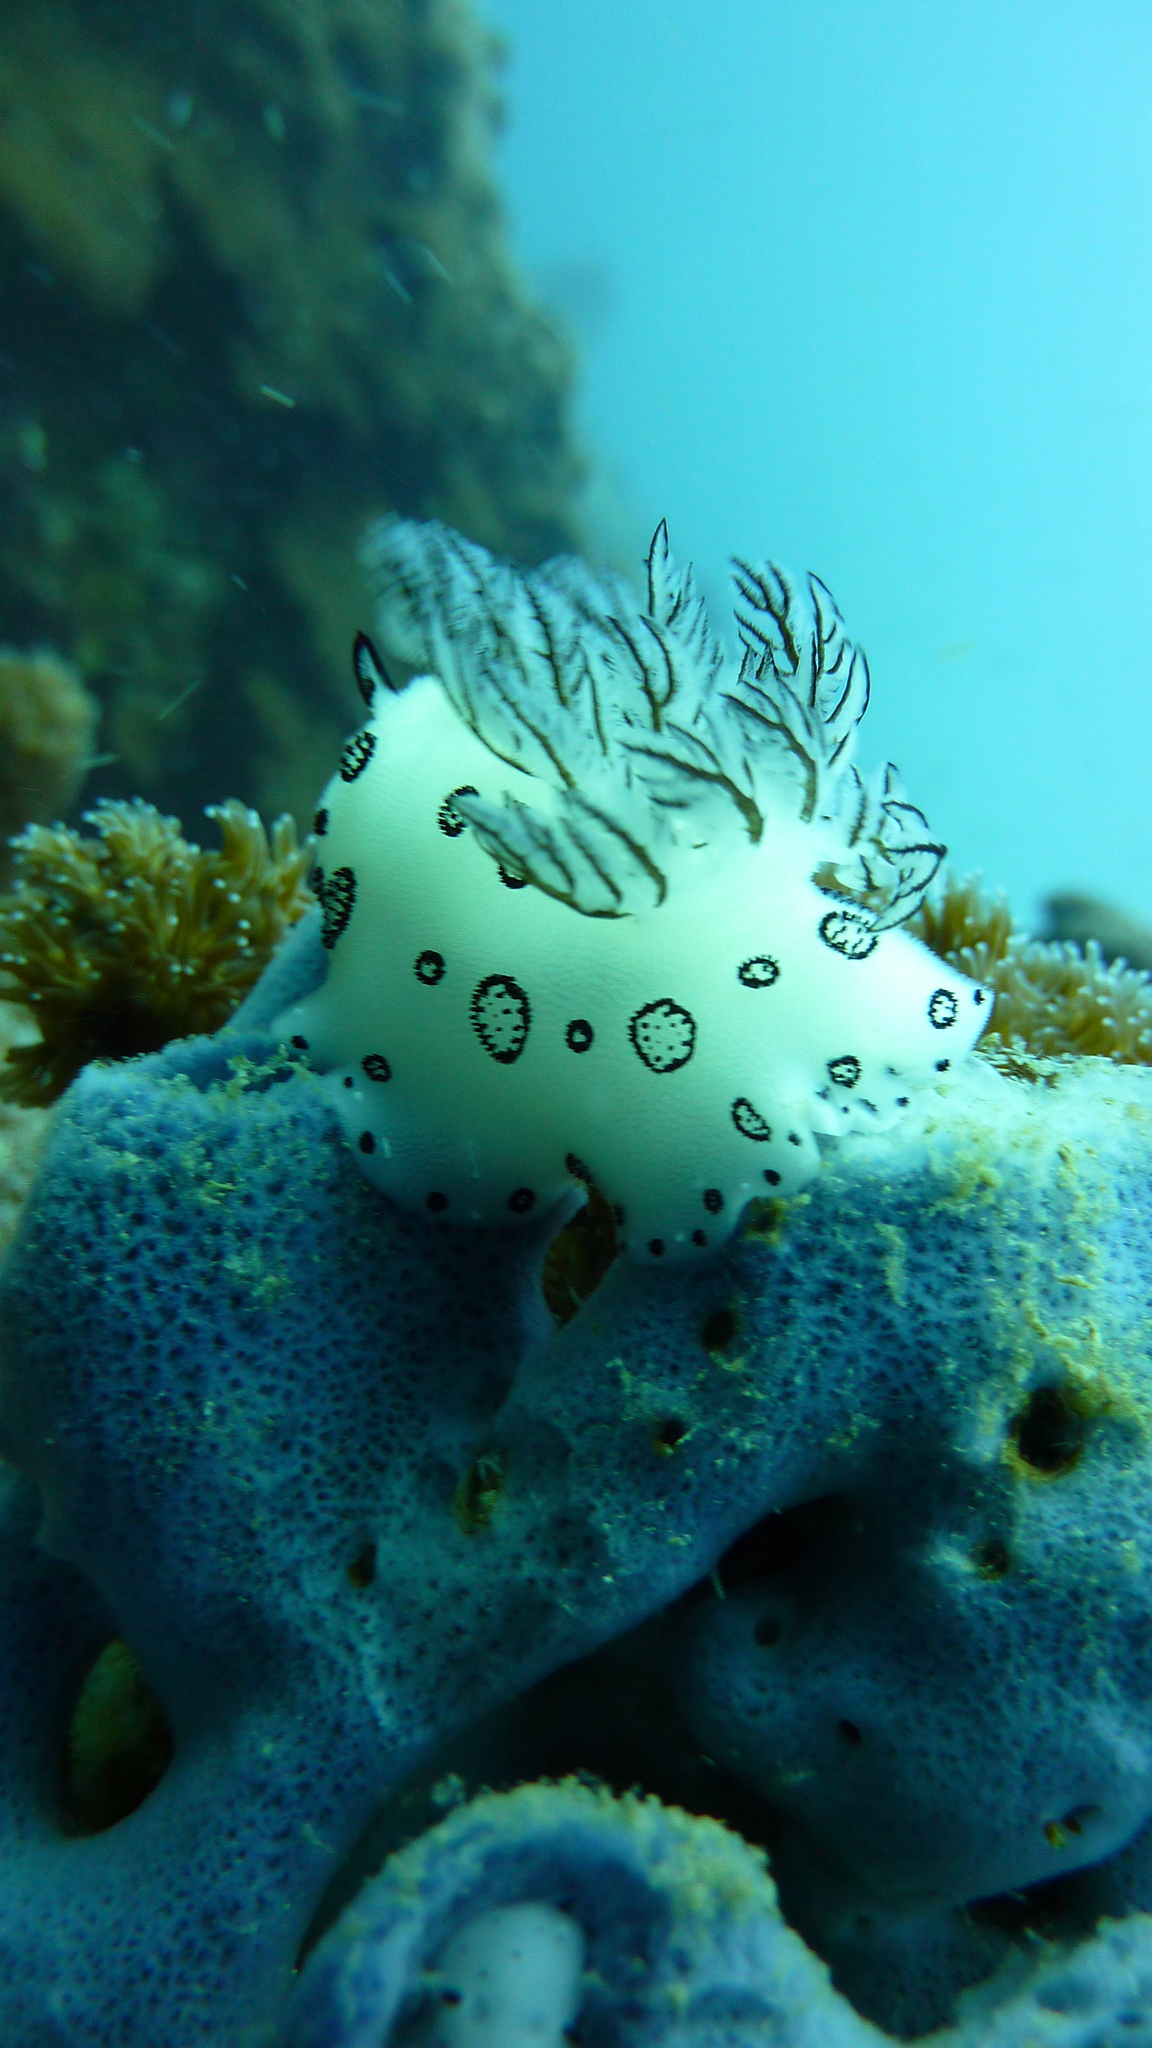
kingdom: Animalia
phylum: Mollusca
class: Gastropoda
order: Nudibranchia
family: Discodorididae
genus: Jorunna
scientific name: Jorunna funebris
